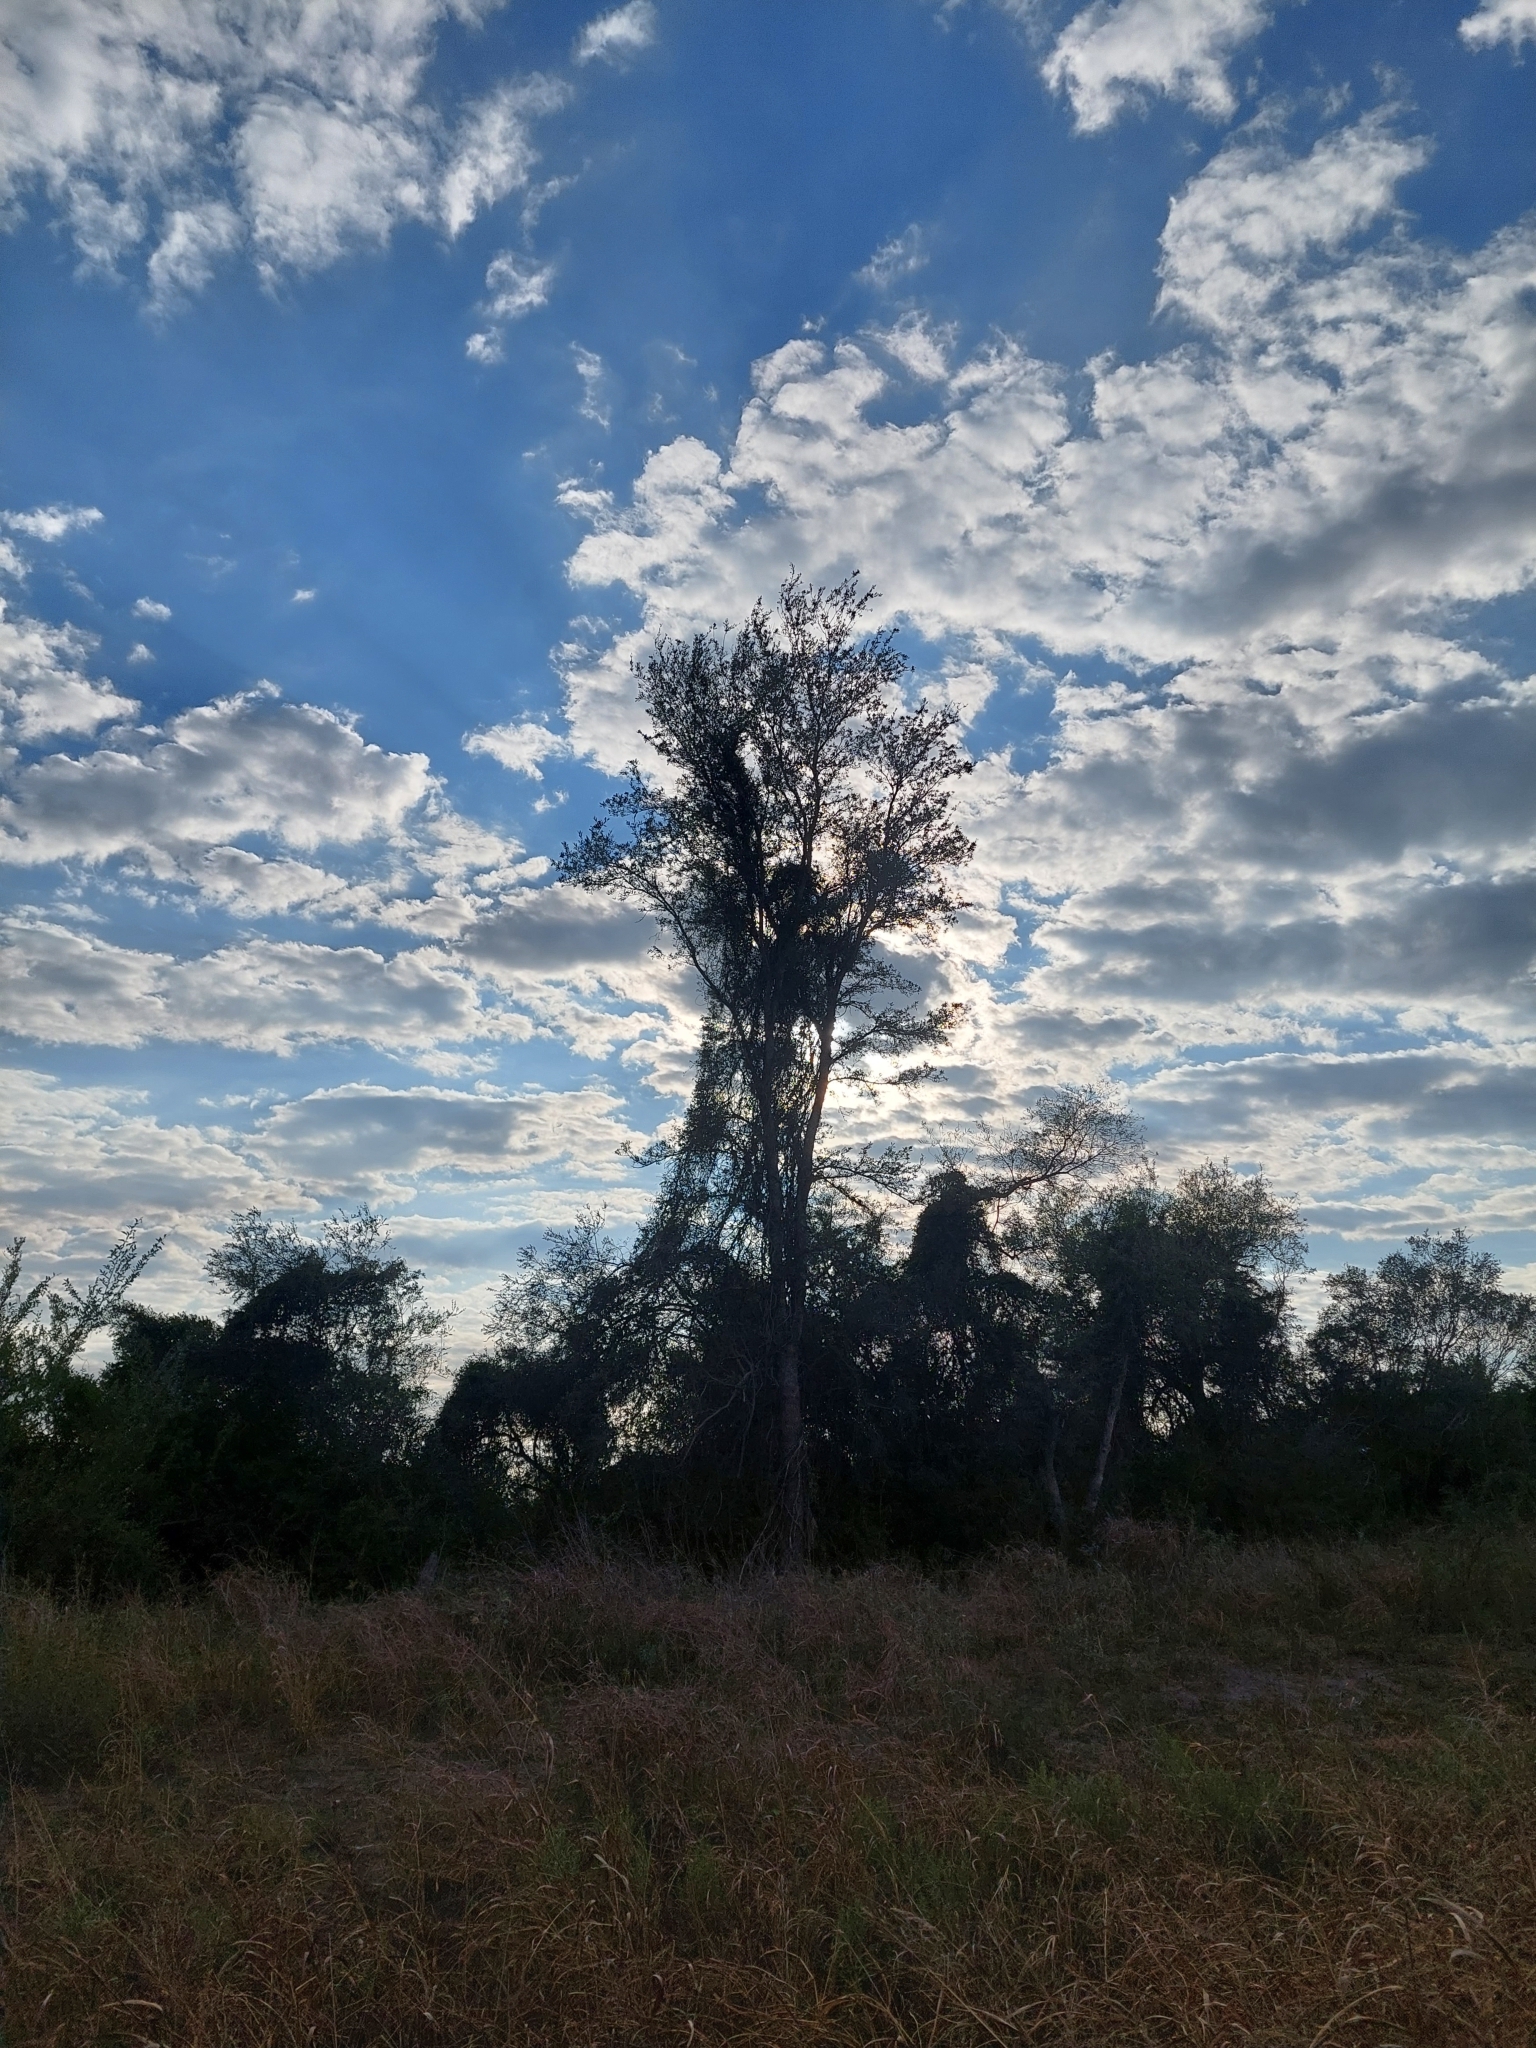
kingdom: Plantae
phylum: Tracheophyta
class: Magnoliopsida
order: Sapindales
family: Anacardiaceae
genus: Schinopsis
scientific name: Schinopsis balansae
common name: Red quebracho
